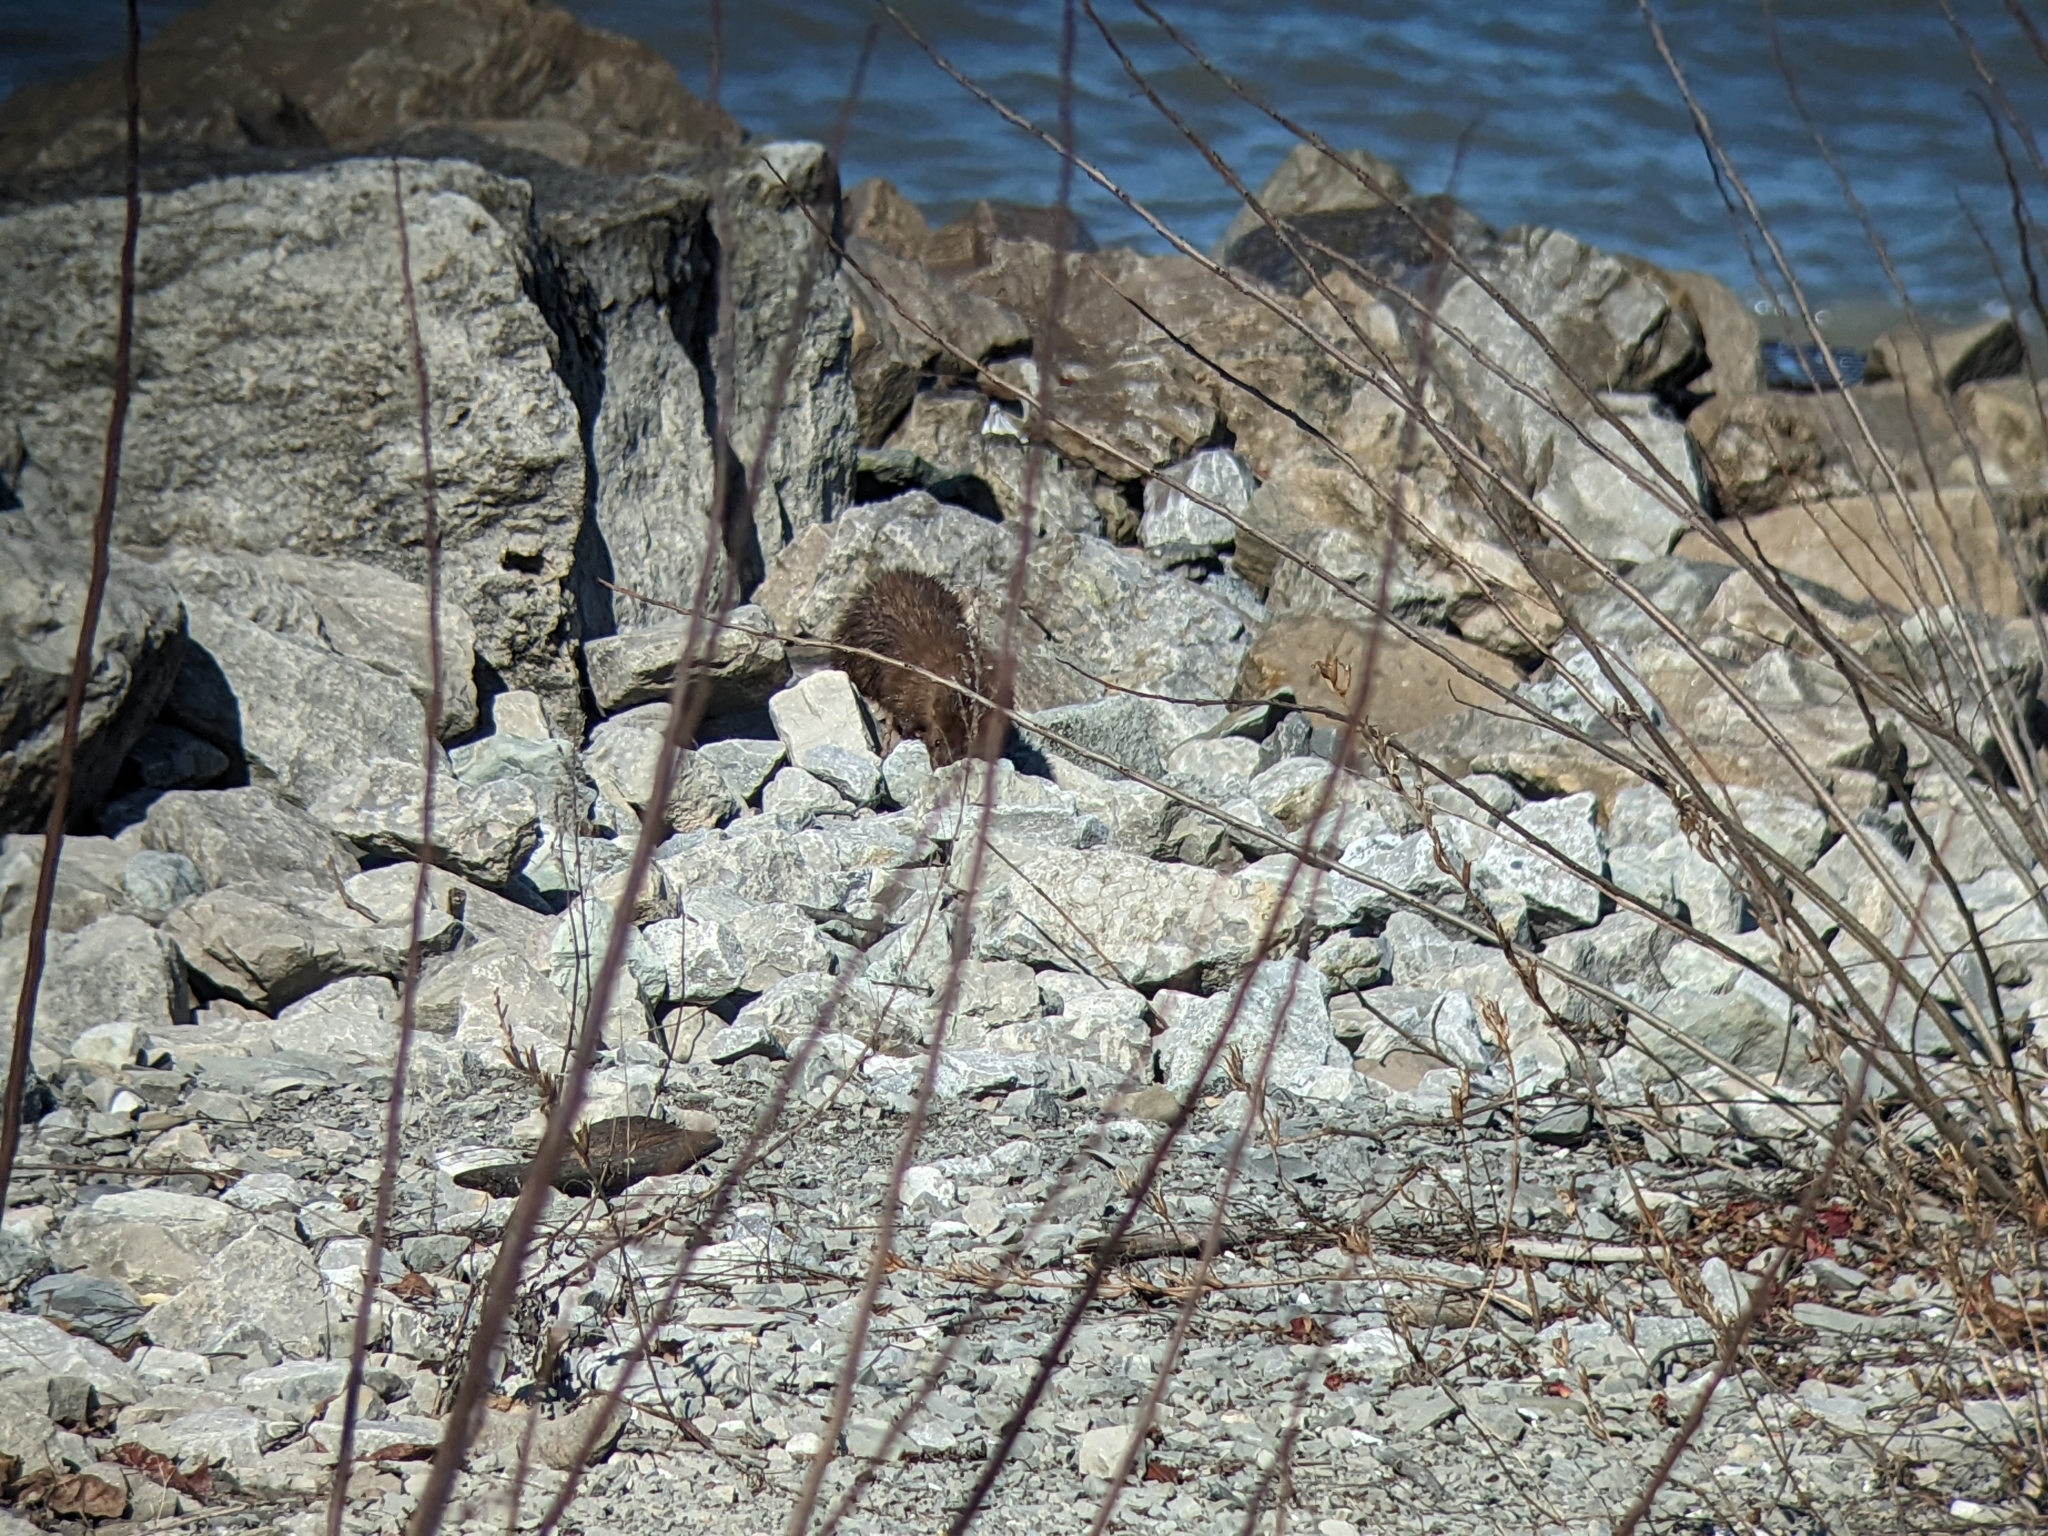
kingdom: Animalia
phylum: Chordata
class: Mammalia
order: Carnivora
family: Mustelidae
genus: Mustela
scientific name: Mustela
